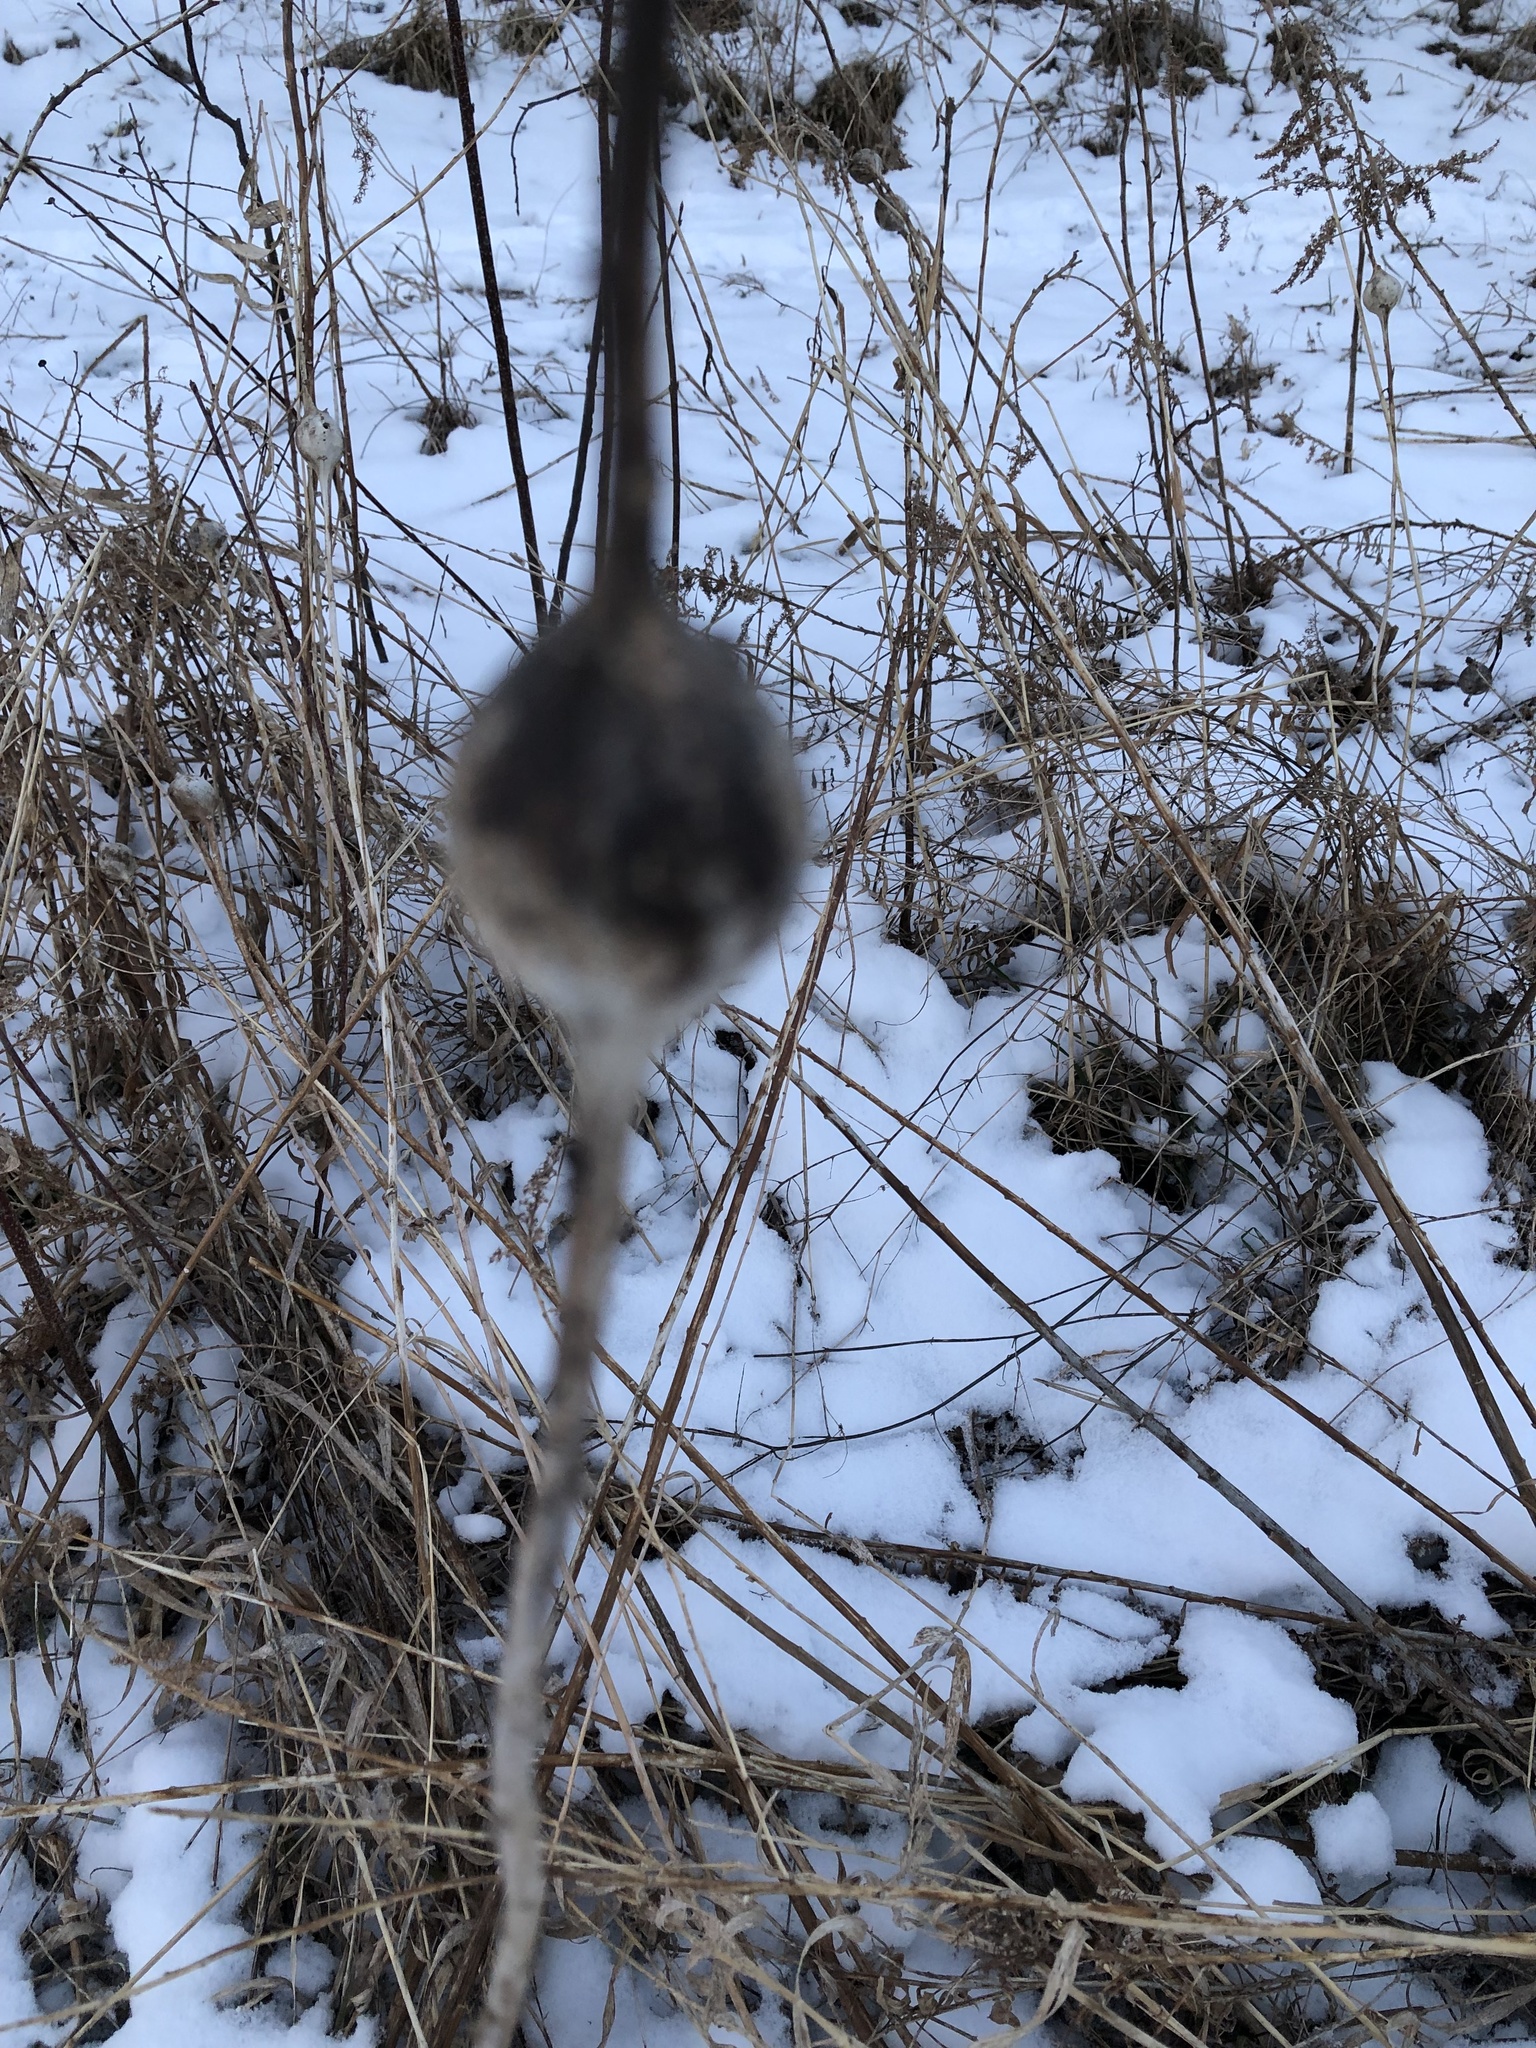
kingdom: Animalia
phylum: Arthropoda
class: Insecta
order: Diptera
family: Tephritidae
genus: Eurosta
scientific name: Eurosta solidaginis
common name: Goldenrod gall fly
